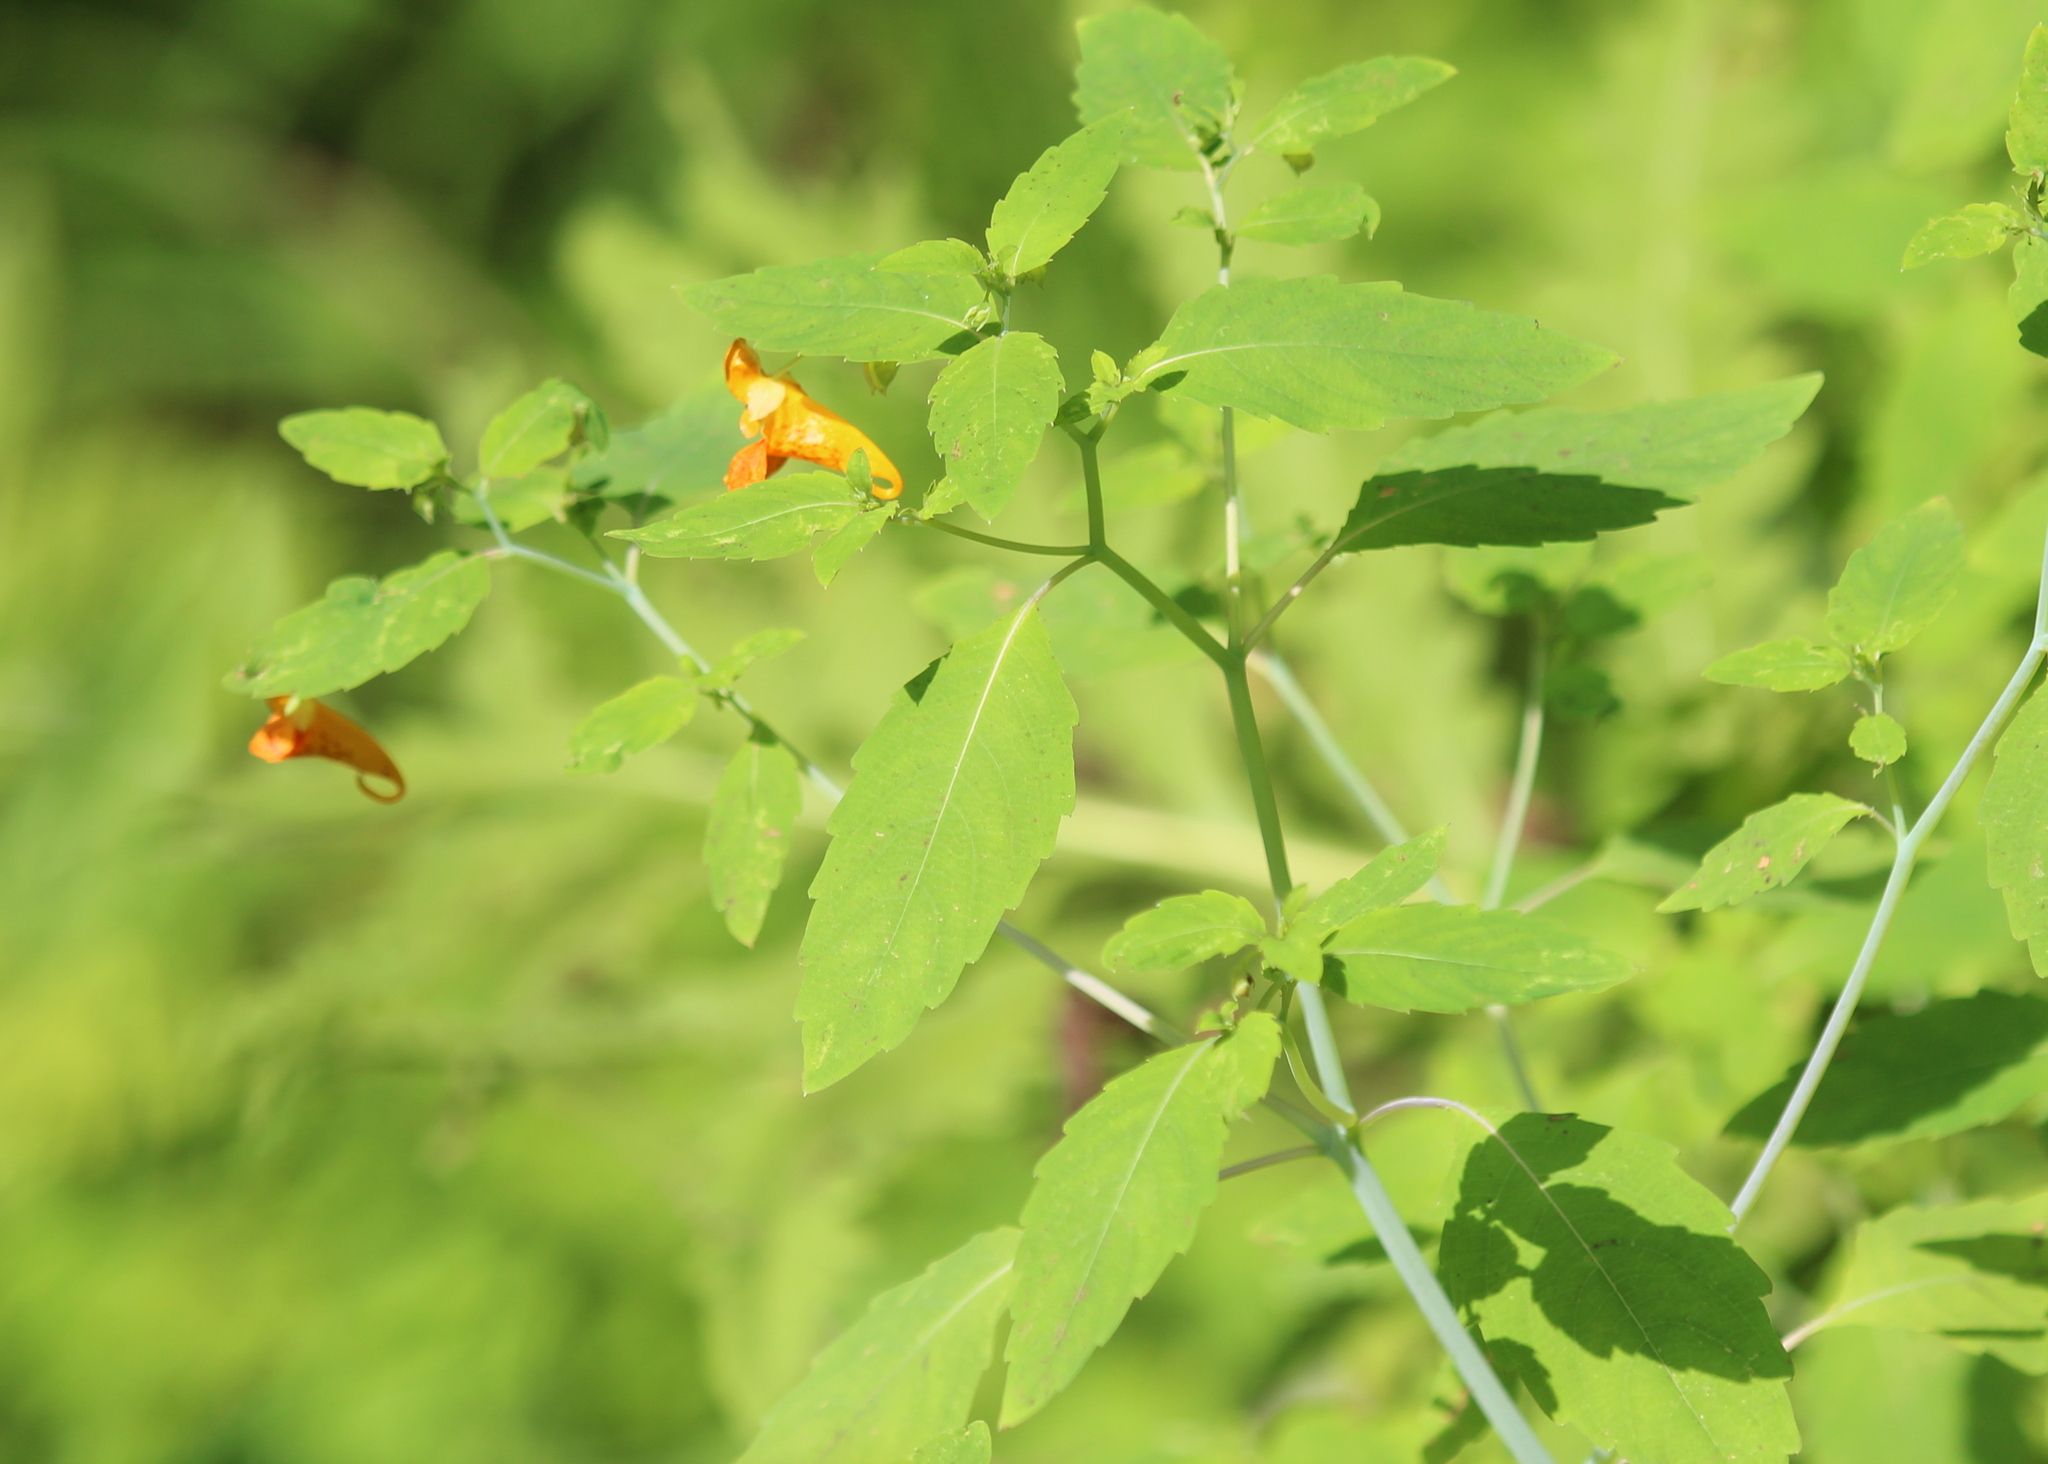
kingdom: Plantae
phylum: Tracheophyta
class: Magnoliopsida
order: Ericales
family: Balsaminaceae
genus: Impatiens
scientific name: Impatiens capensis
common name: Orange balsam
